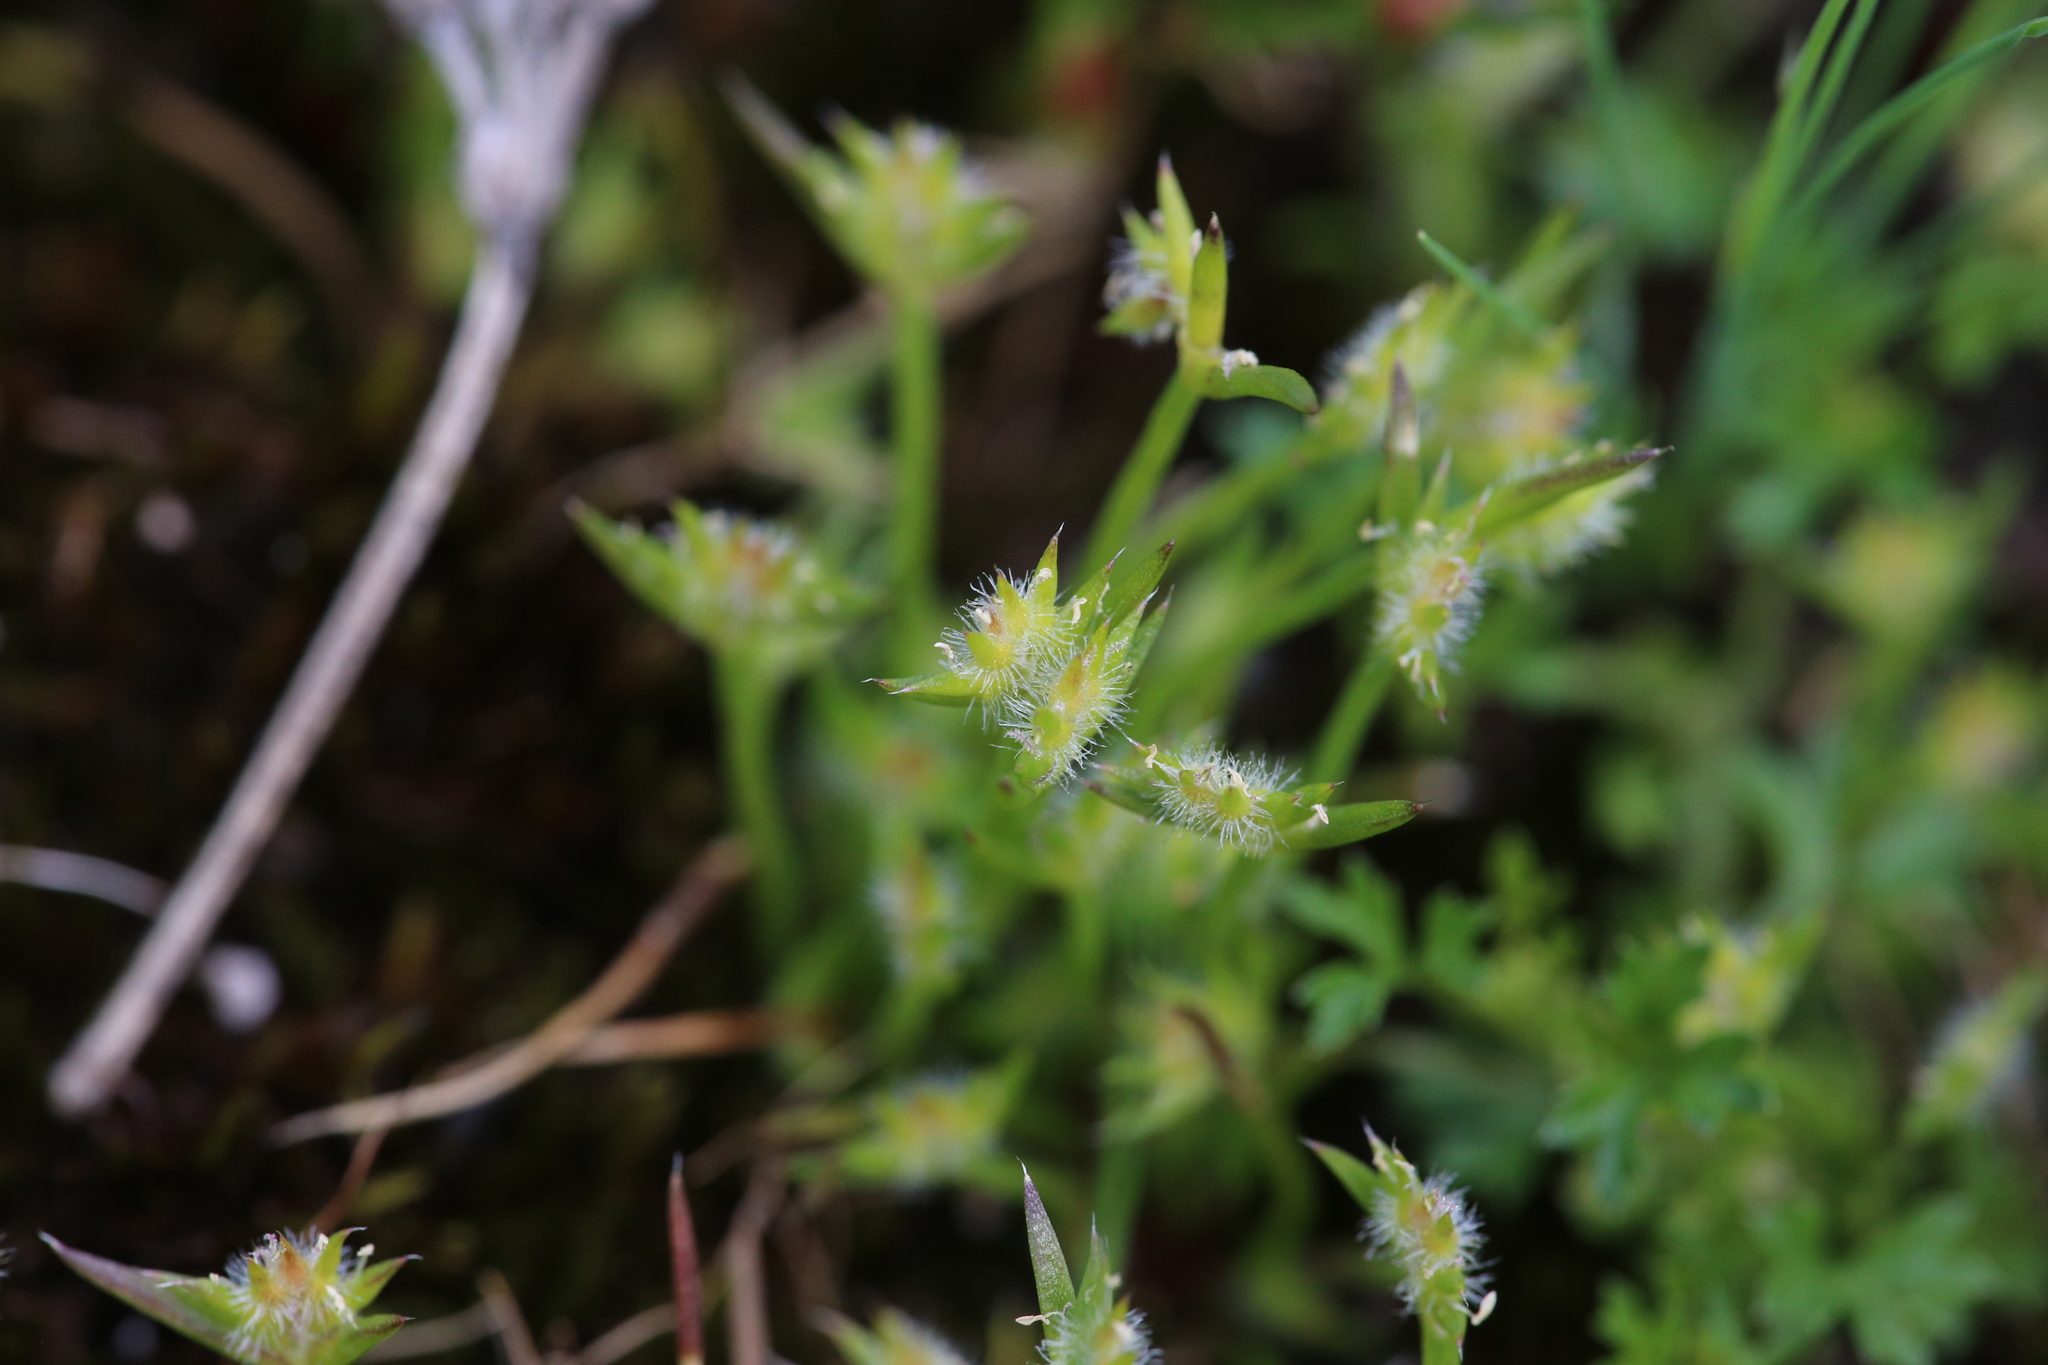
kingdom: Plantae
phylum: Tracheophyta
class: Liliopsida
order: Poales
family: Restionaceae
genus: Aphelia
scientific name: Aphelia cyperoides
